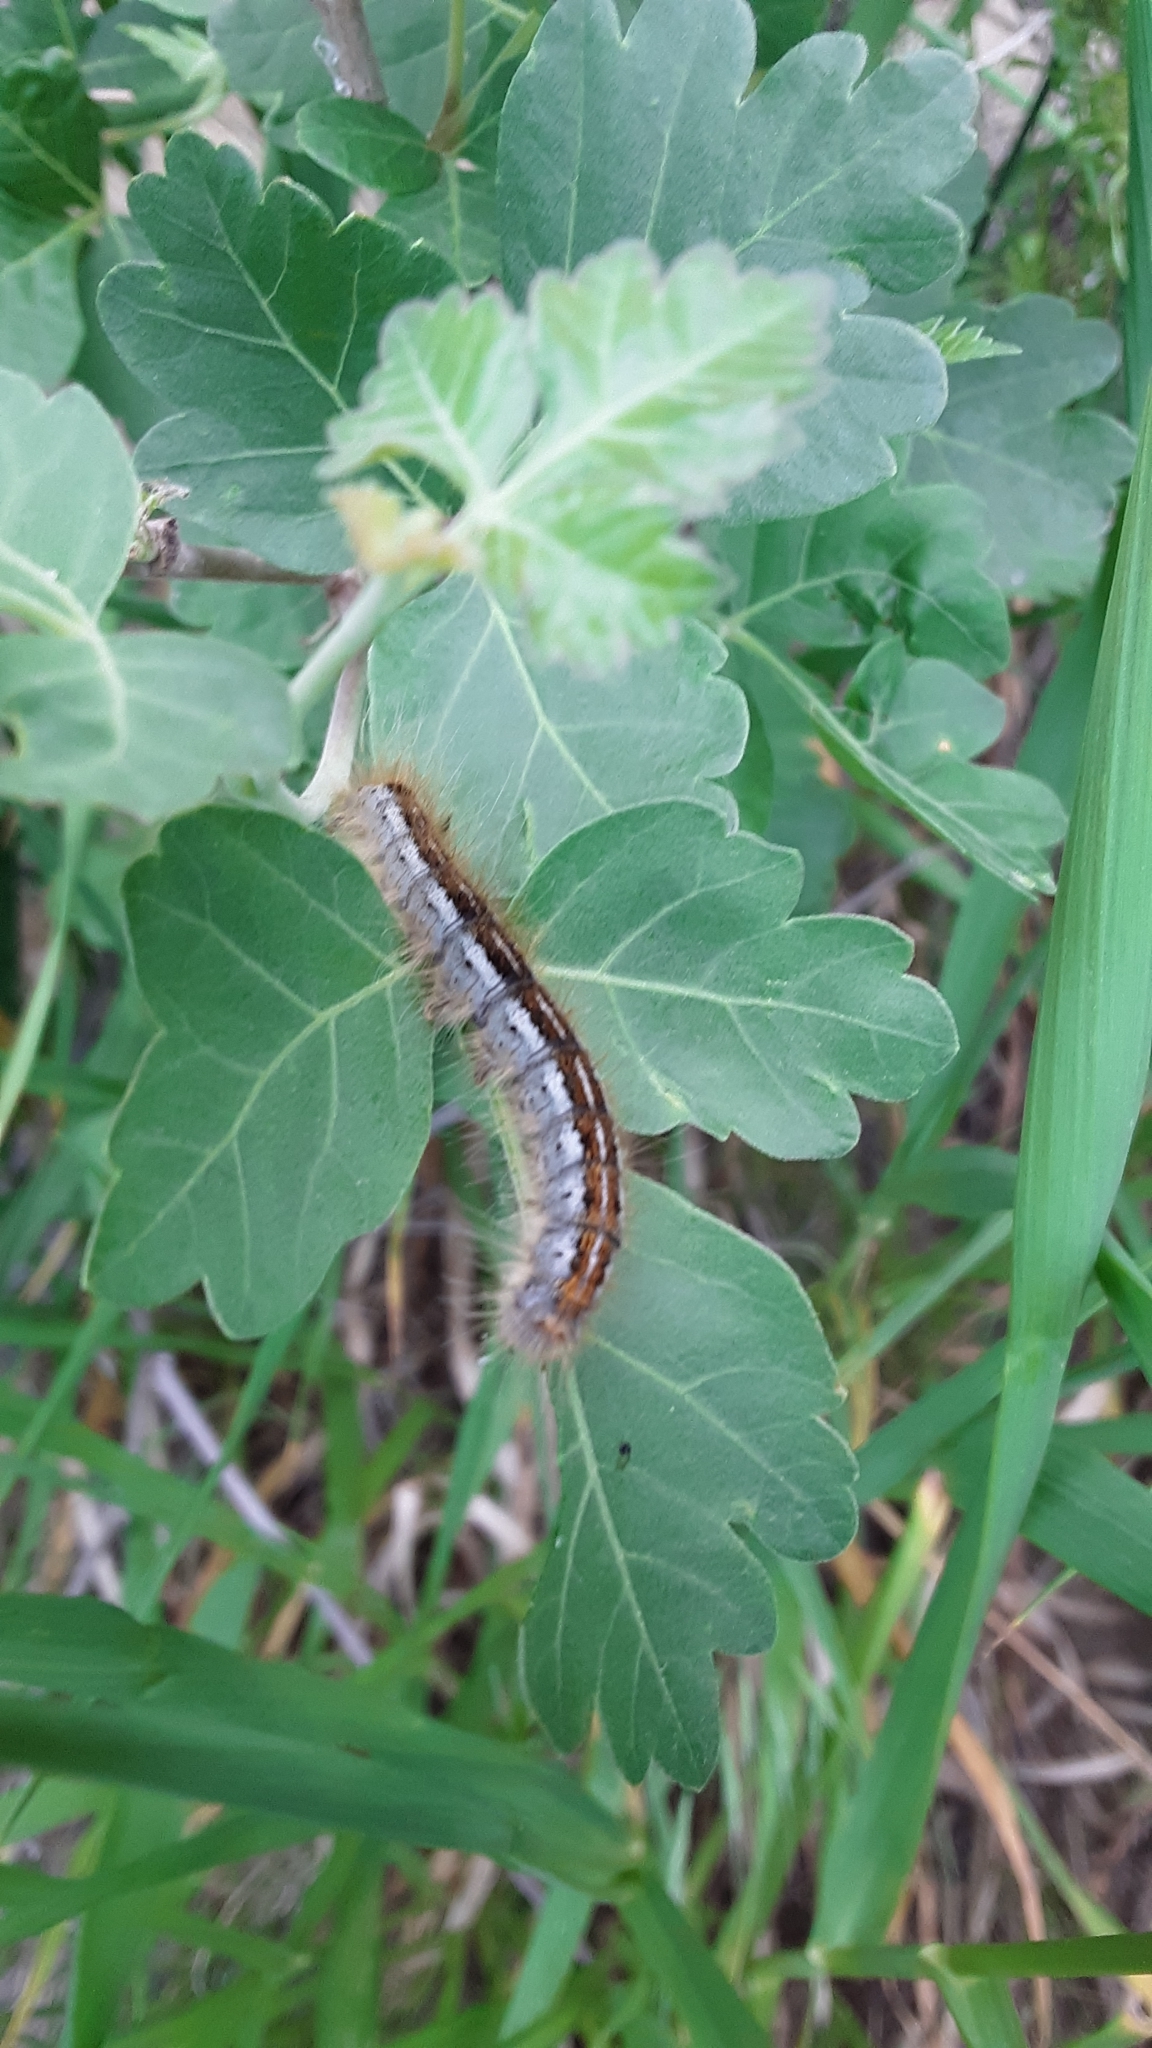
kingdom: Animalia
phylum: Arthropoda
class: Insecta
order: Lepidoptera
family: Lasiocampidae
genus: Malacosoma
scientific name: Malacosoma californica
